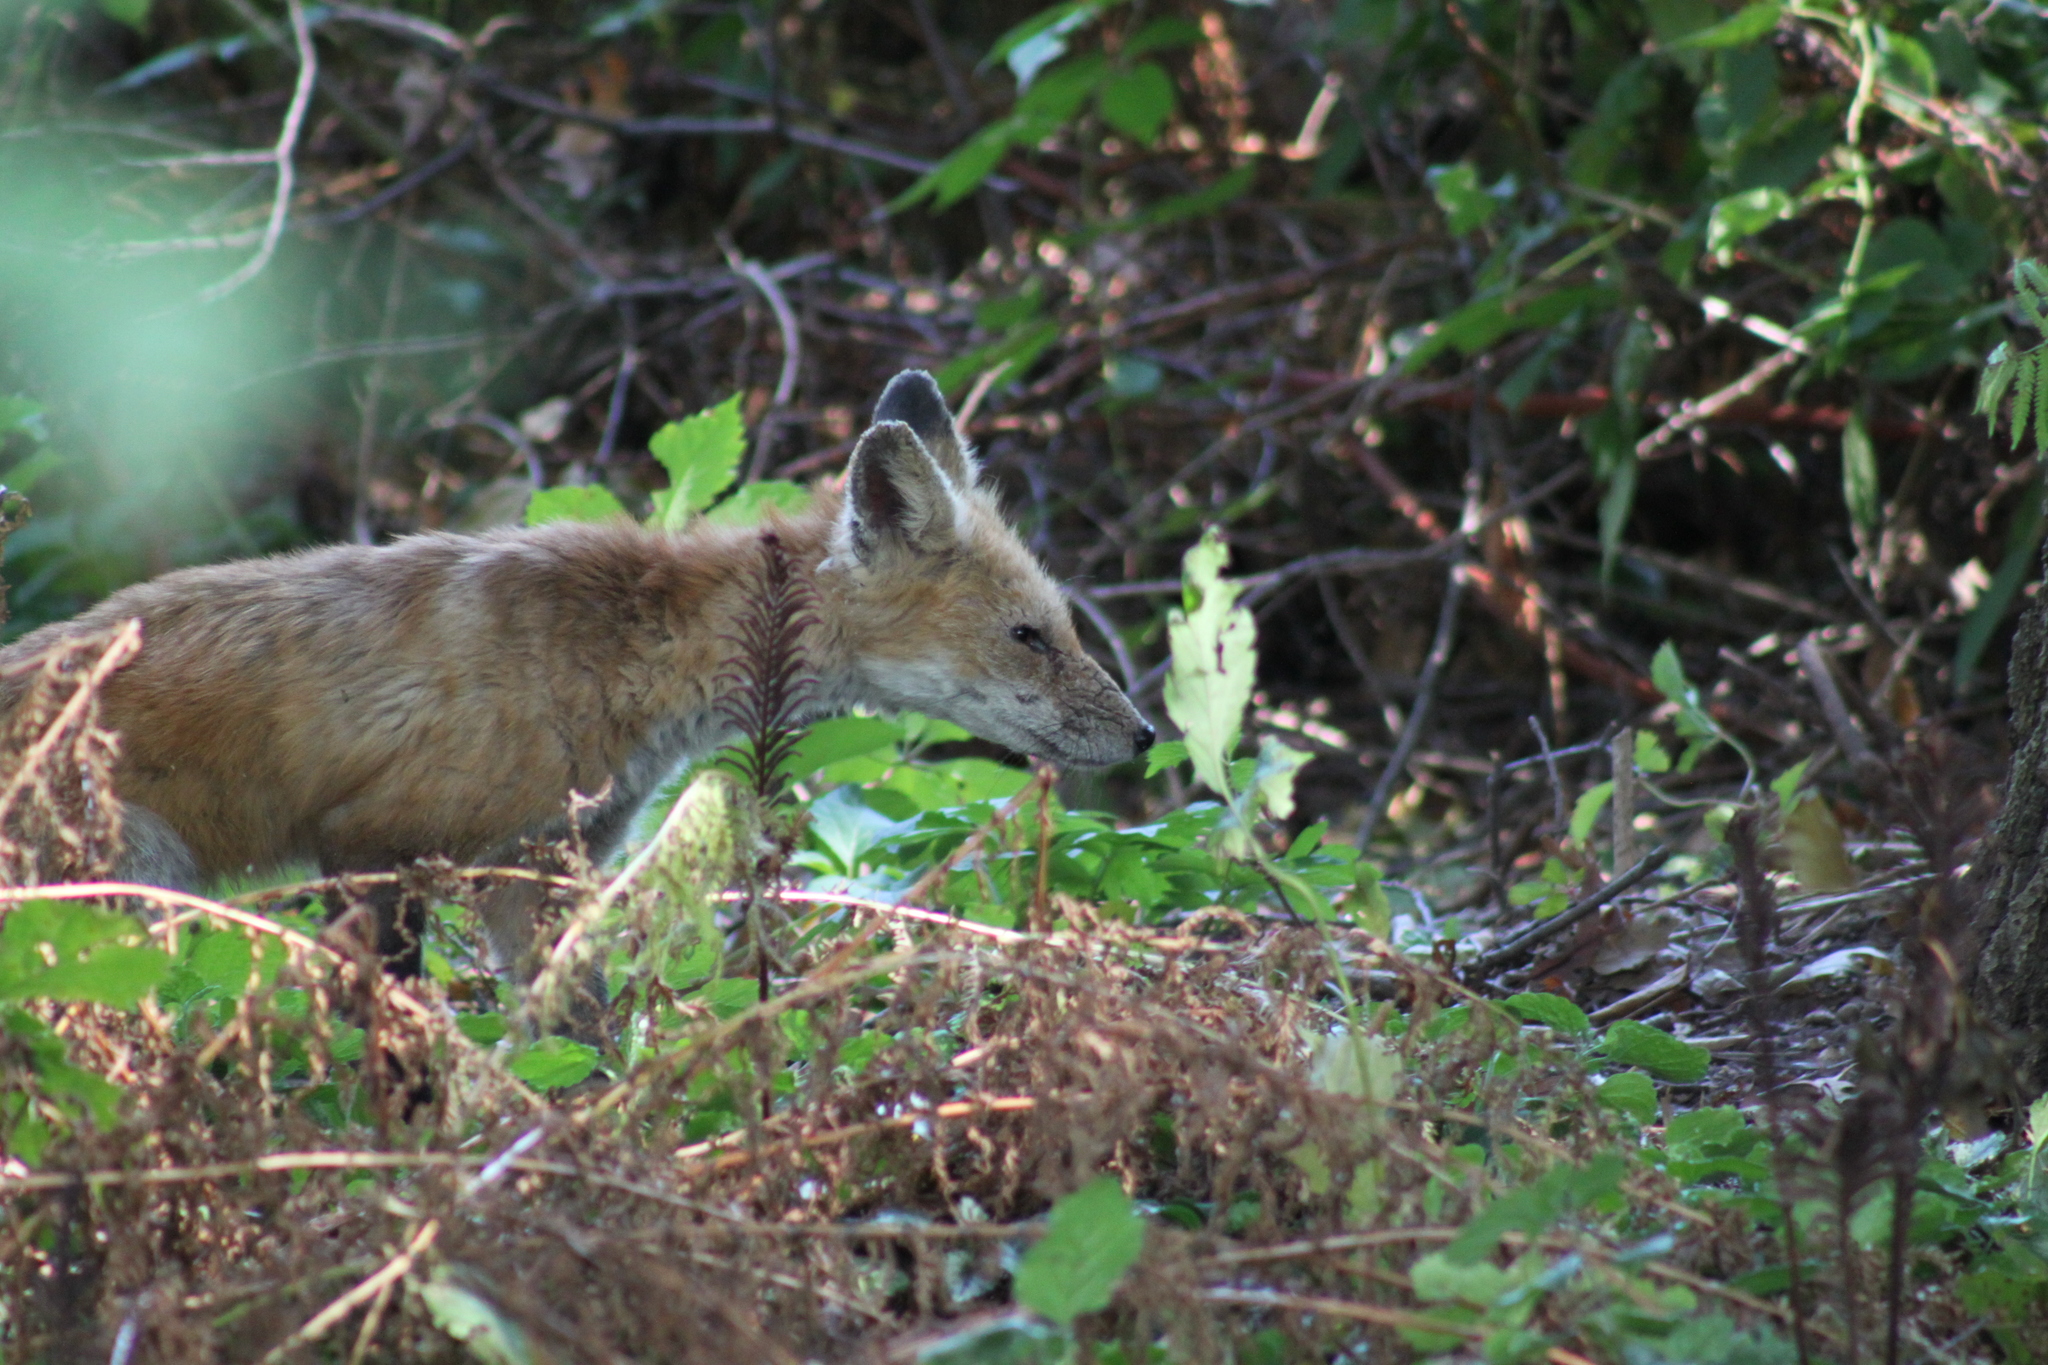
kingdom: Animalia
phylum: Chordata
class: Mammalia
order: Carnivora
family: Canidae
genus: Vulpes
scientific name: Vulpes vulpes
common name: Red fox
